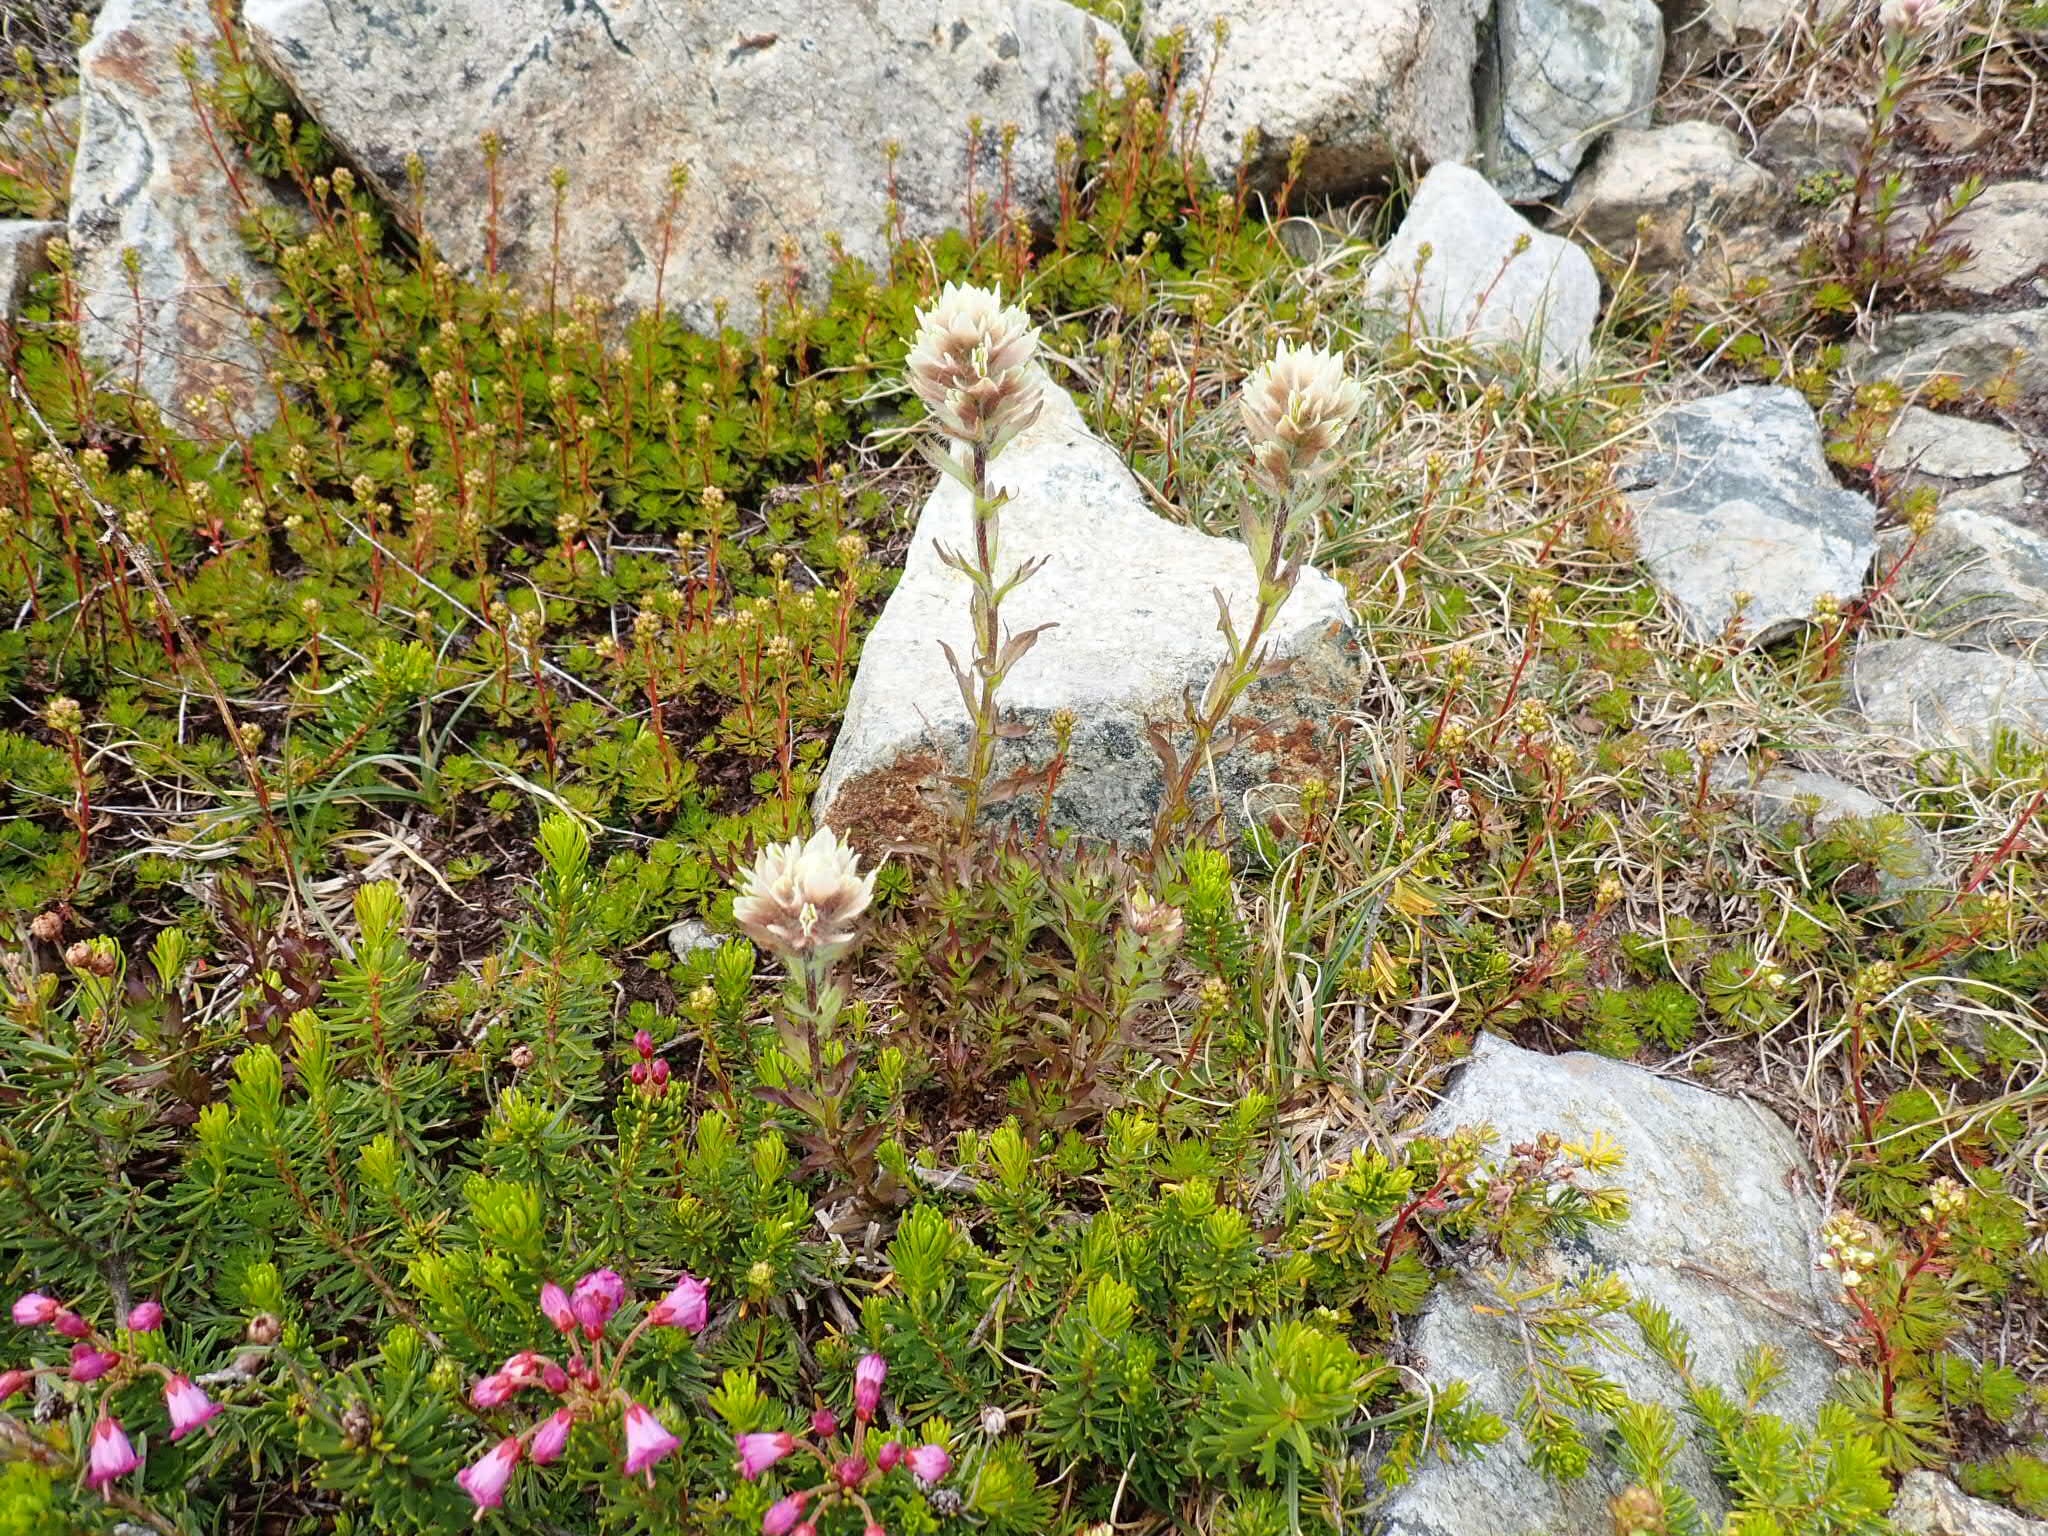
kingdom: Plantae
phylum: Tracheophyta
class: Magnoliopsida
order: Lamiales
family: Orobanchaceae
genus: Castilleja
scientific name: Castilleja parviflora
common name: Mountain paintbrush
